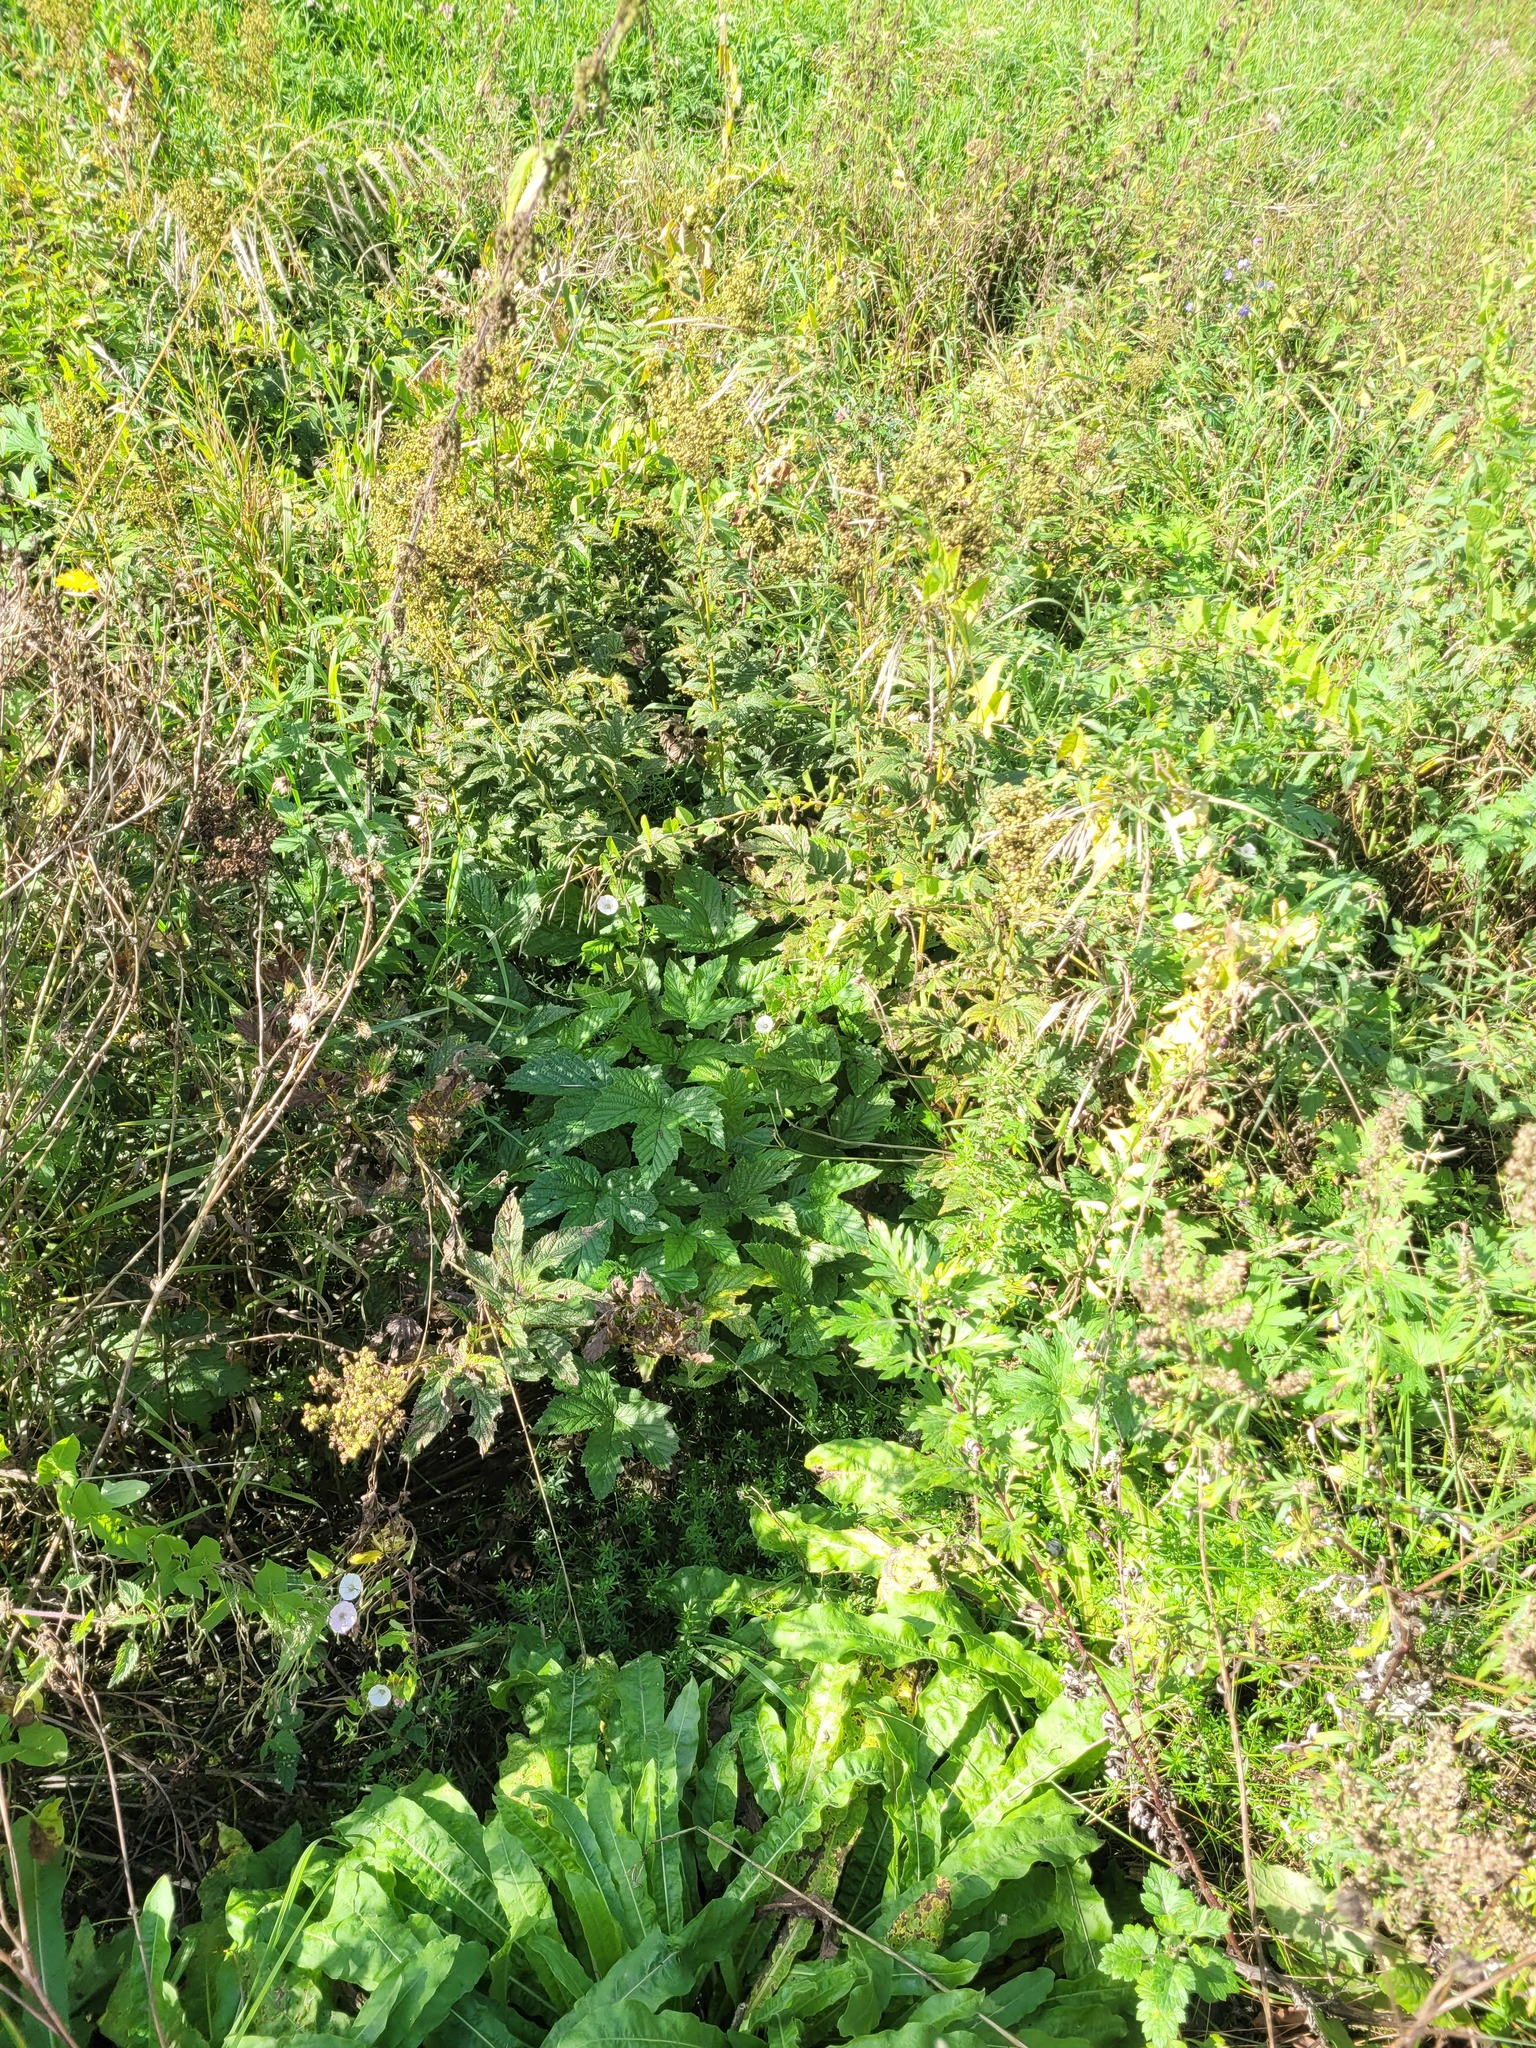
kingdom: Plantae
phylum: Tracheophyta
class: Magnoliopsida
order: Rosales
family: Rosaceae
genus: Filipendula
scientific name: Filipendula ulmaria
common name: Meadowsweet
